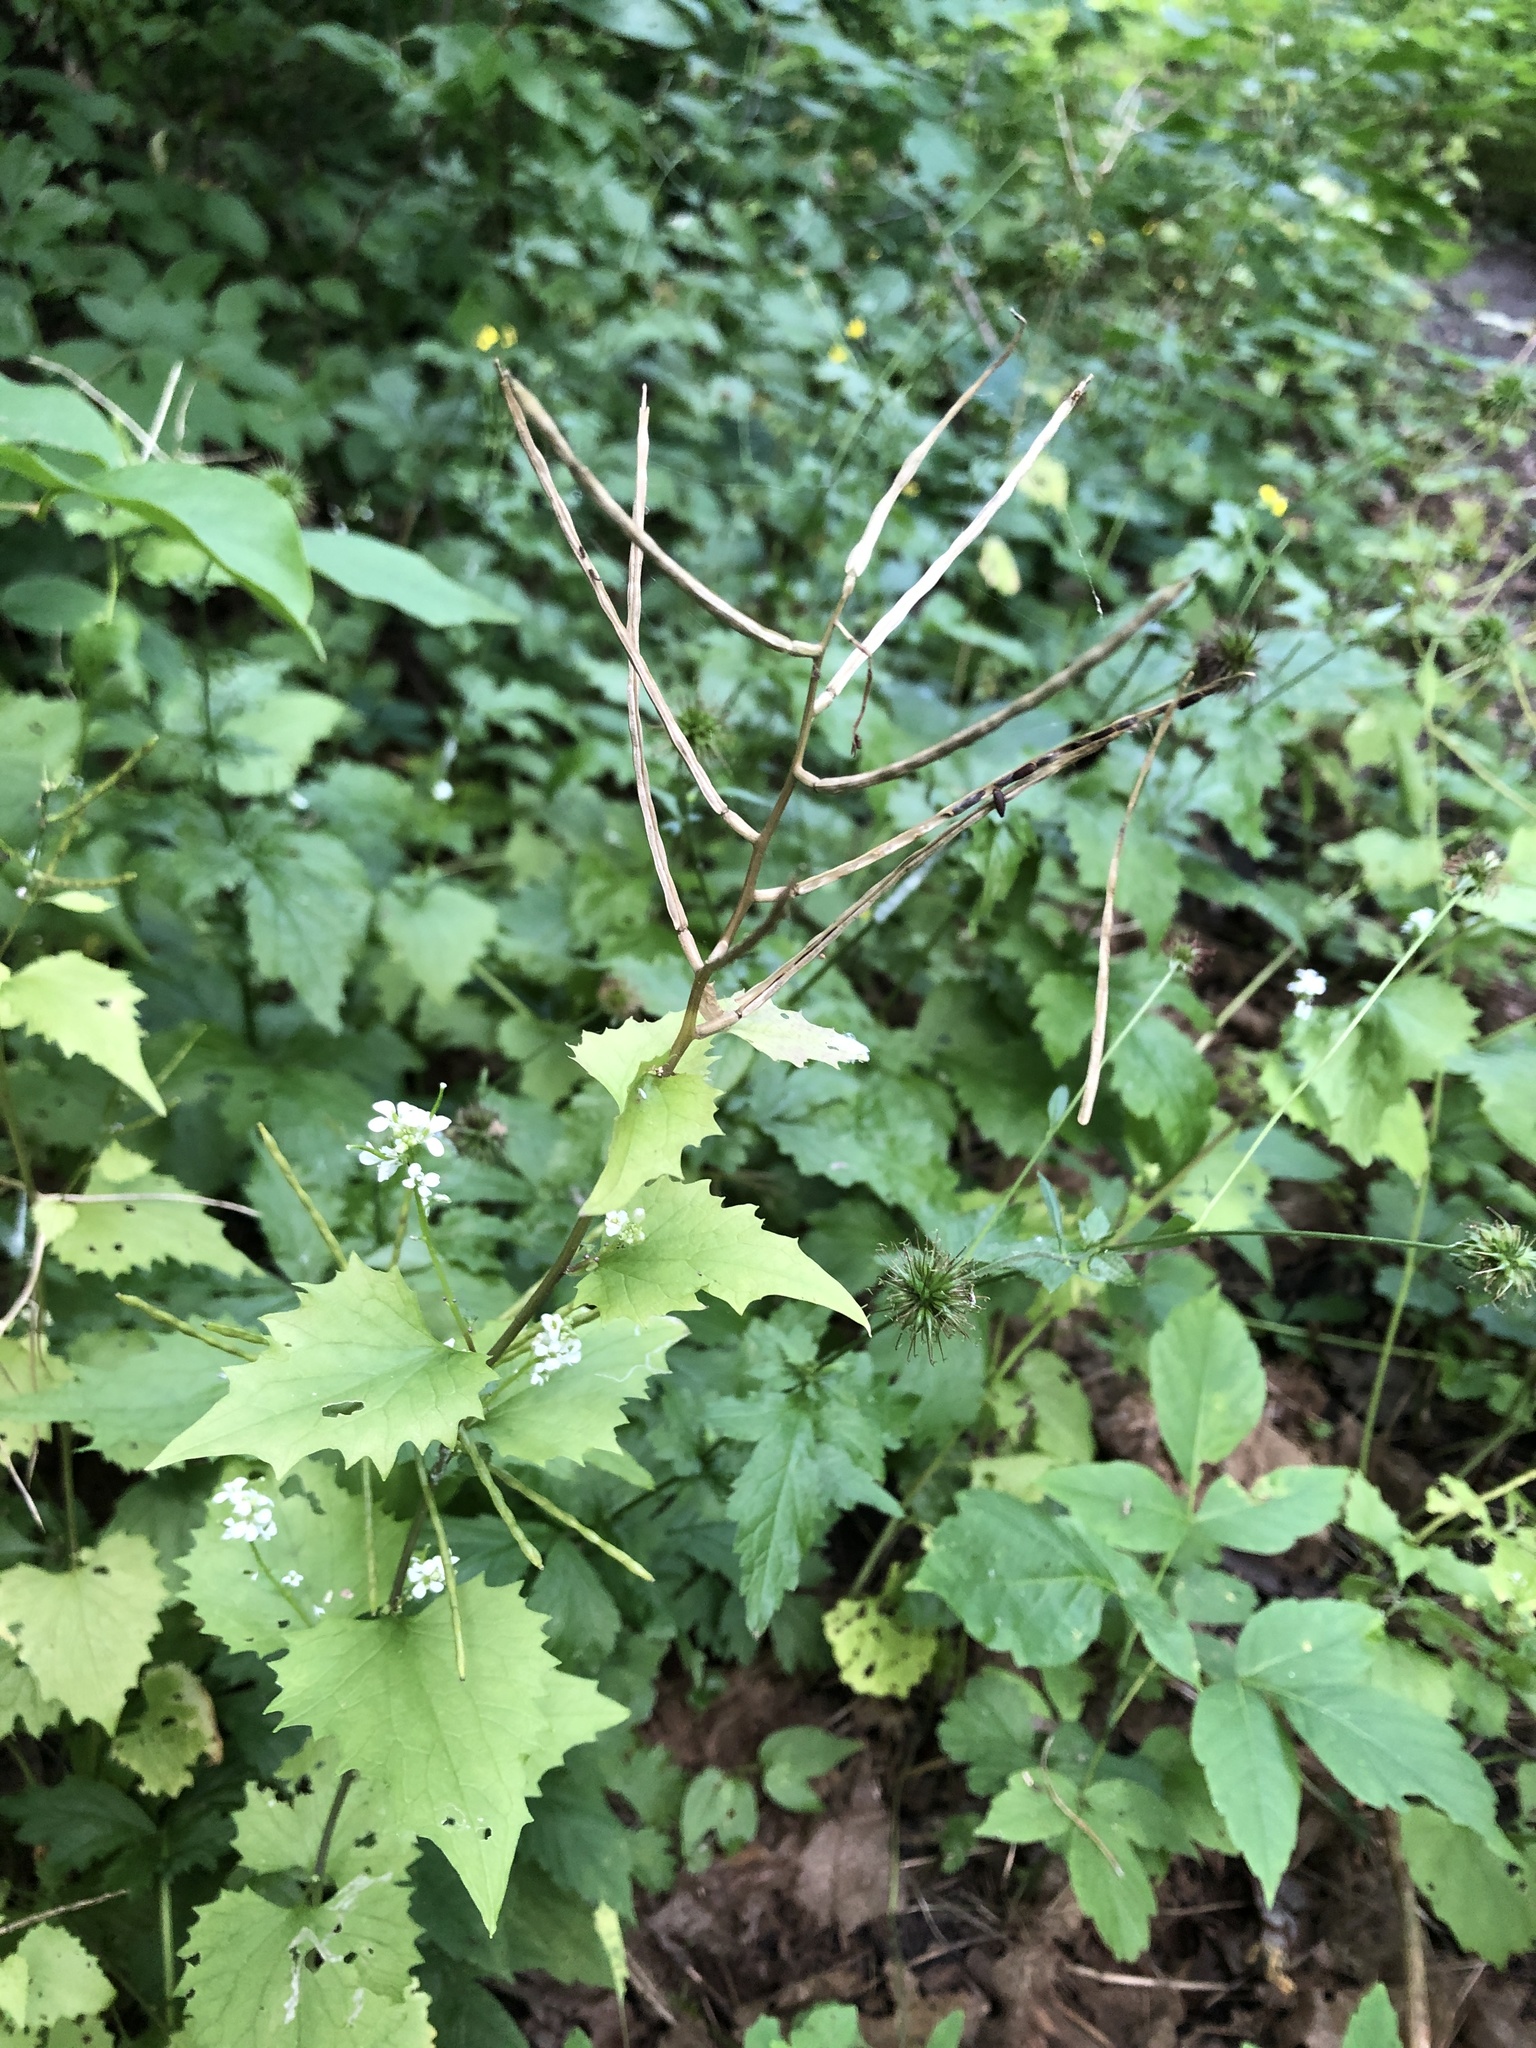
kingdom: Plantae
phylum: Tracheophyta
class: Magnoliopsida
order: Brassicales
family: Brassicaceae
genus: Alliaria
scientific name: Alliaria petiolata
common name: Garlic mustard
